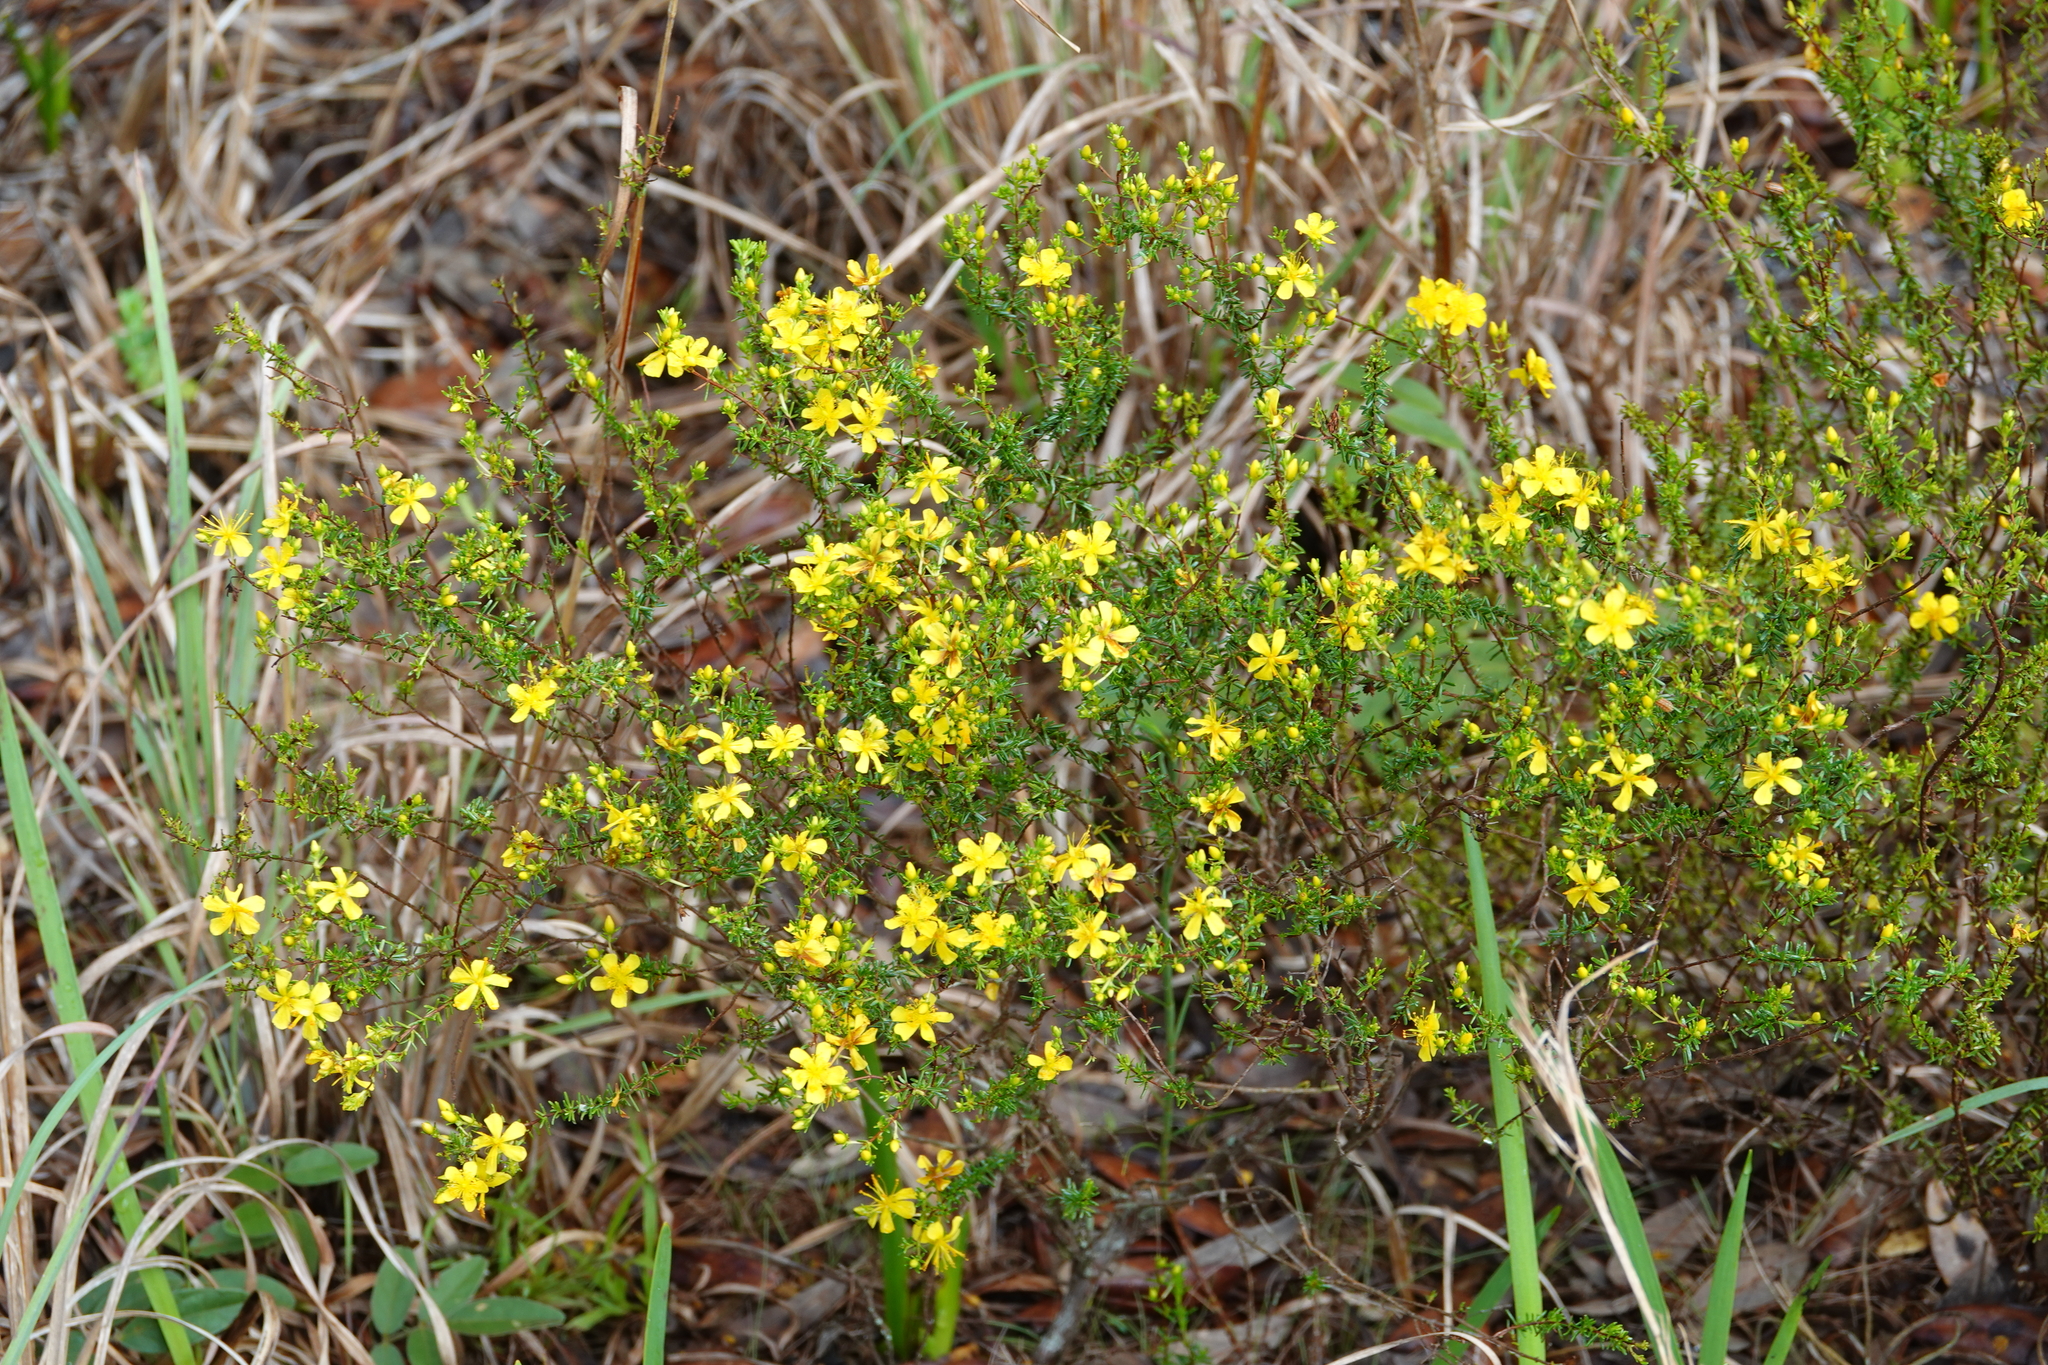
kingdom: Plantae
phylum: Tracheophyta
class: Magnoliopsida
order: Malpighiales
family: Hypericaceae
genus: Hypericum
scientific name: Hypericum fasciculatum
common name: Peelbark st. john's wort
